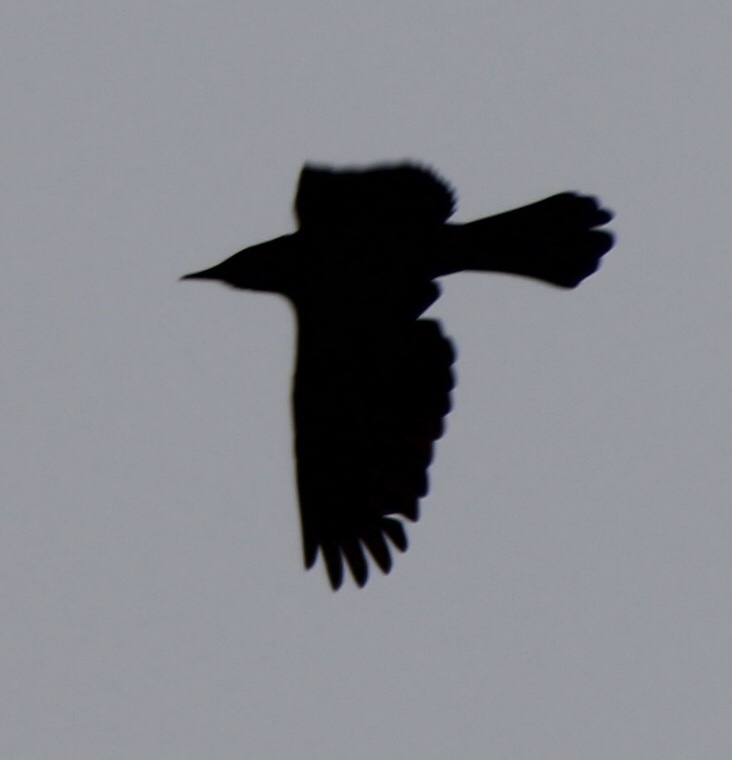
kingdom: Animalia
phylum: Chordata
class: Aves
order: Passeriformes
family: Icteridae
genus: Quiscalus
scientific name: Quiscalus quiscula
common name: Common grackle
